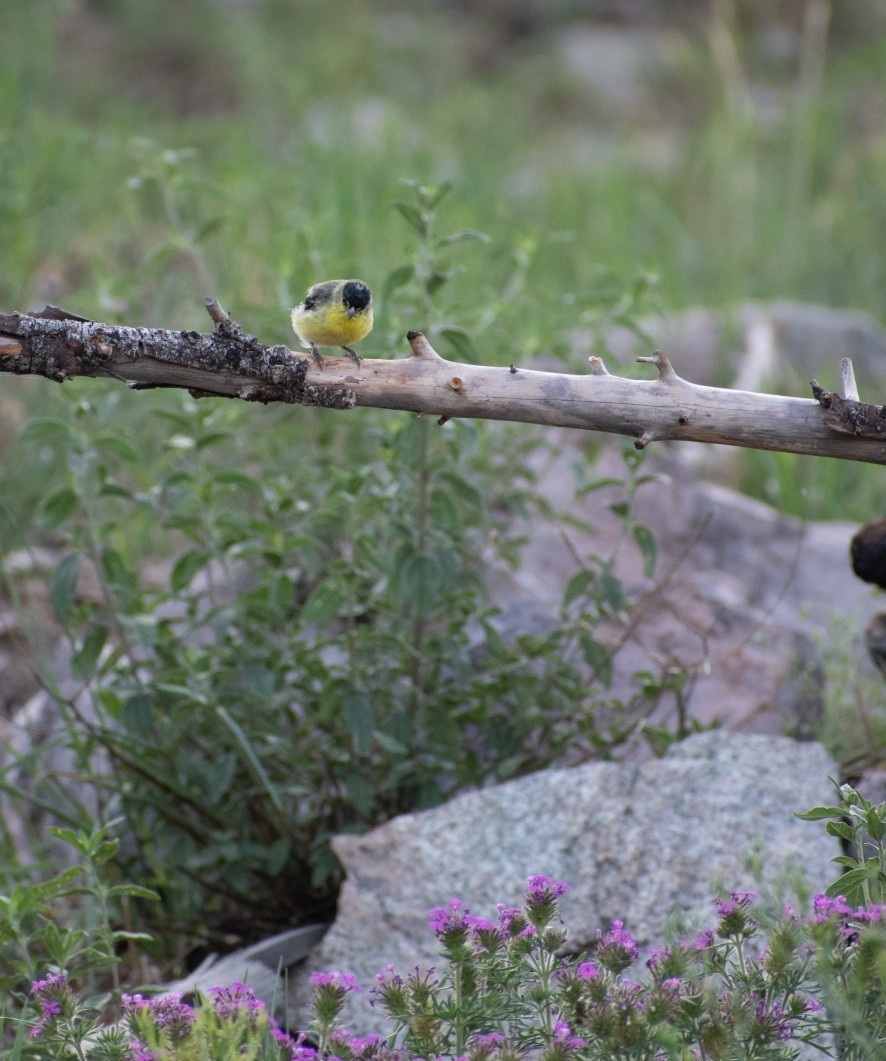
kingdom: Animalia
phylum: Chordata
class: Aves
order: Passeriformes
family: Fringillidae
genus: Spinus
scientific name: Spinus psaltria
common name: Lesser goldfinch
